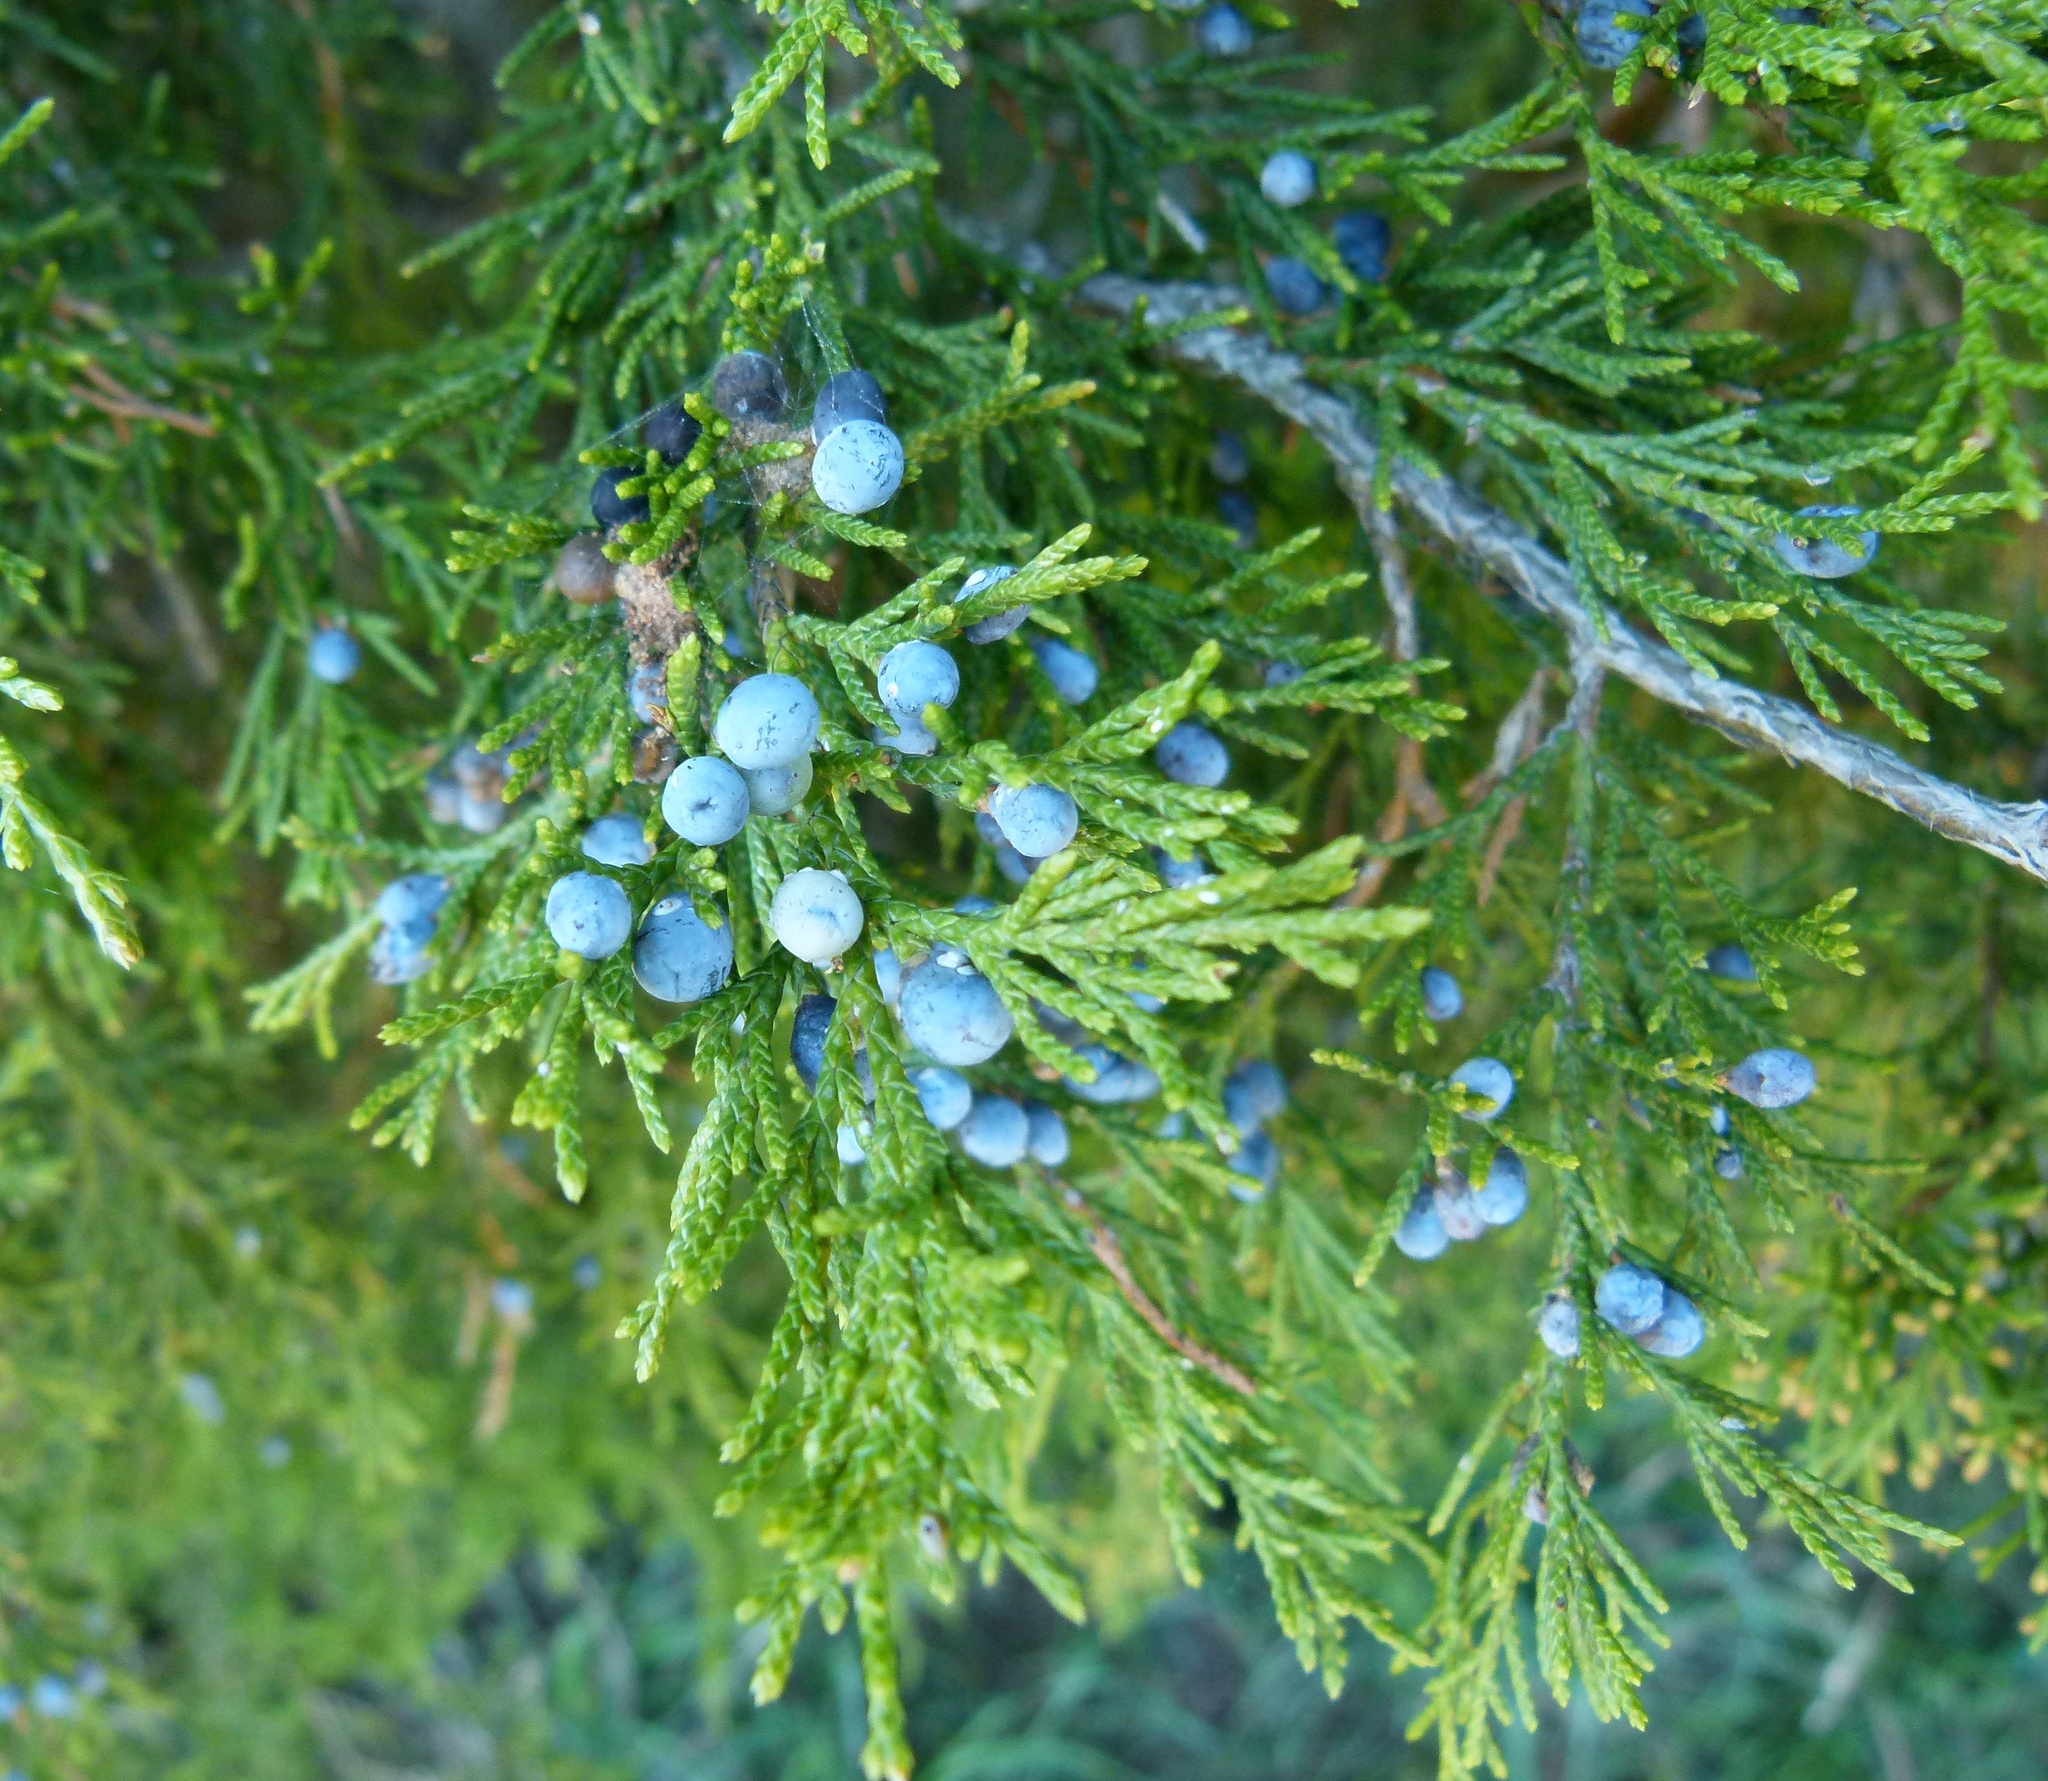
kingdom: Plantae
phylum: Tracheophyta
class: Pinopsida
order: Pinales
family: Cupressaceae
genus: Juniperus
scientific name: Juniperus virginiana
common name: Red juniper
